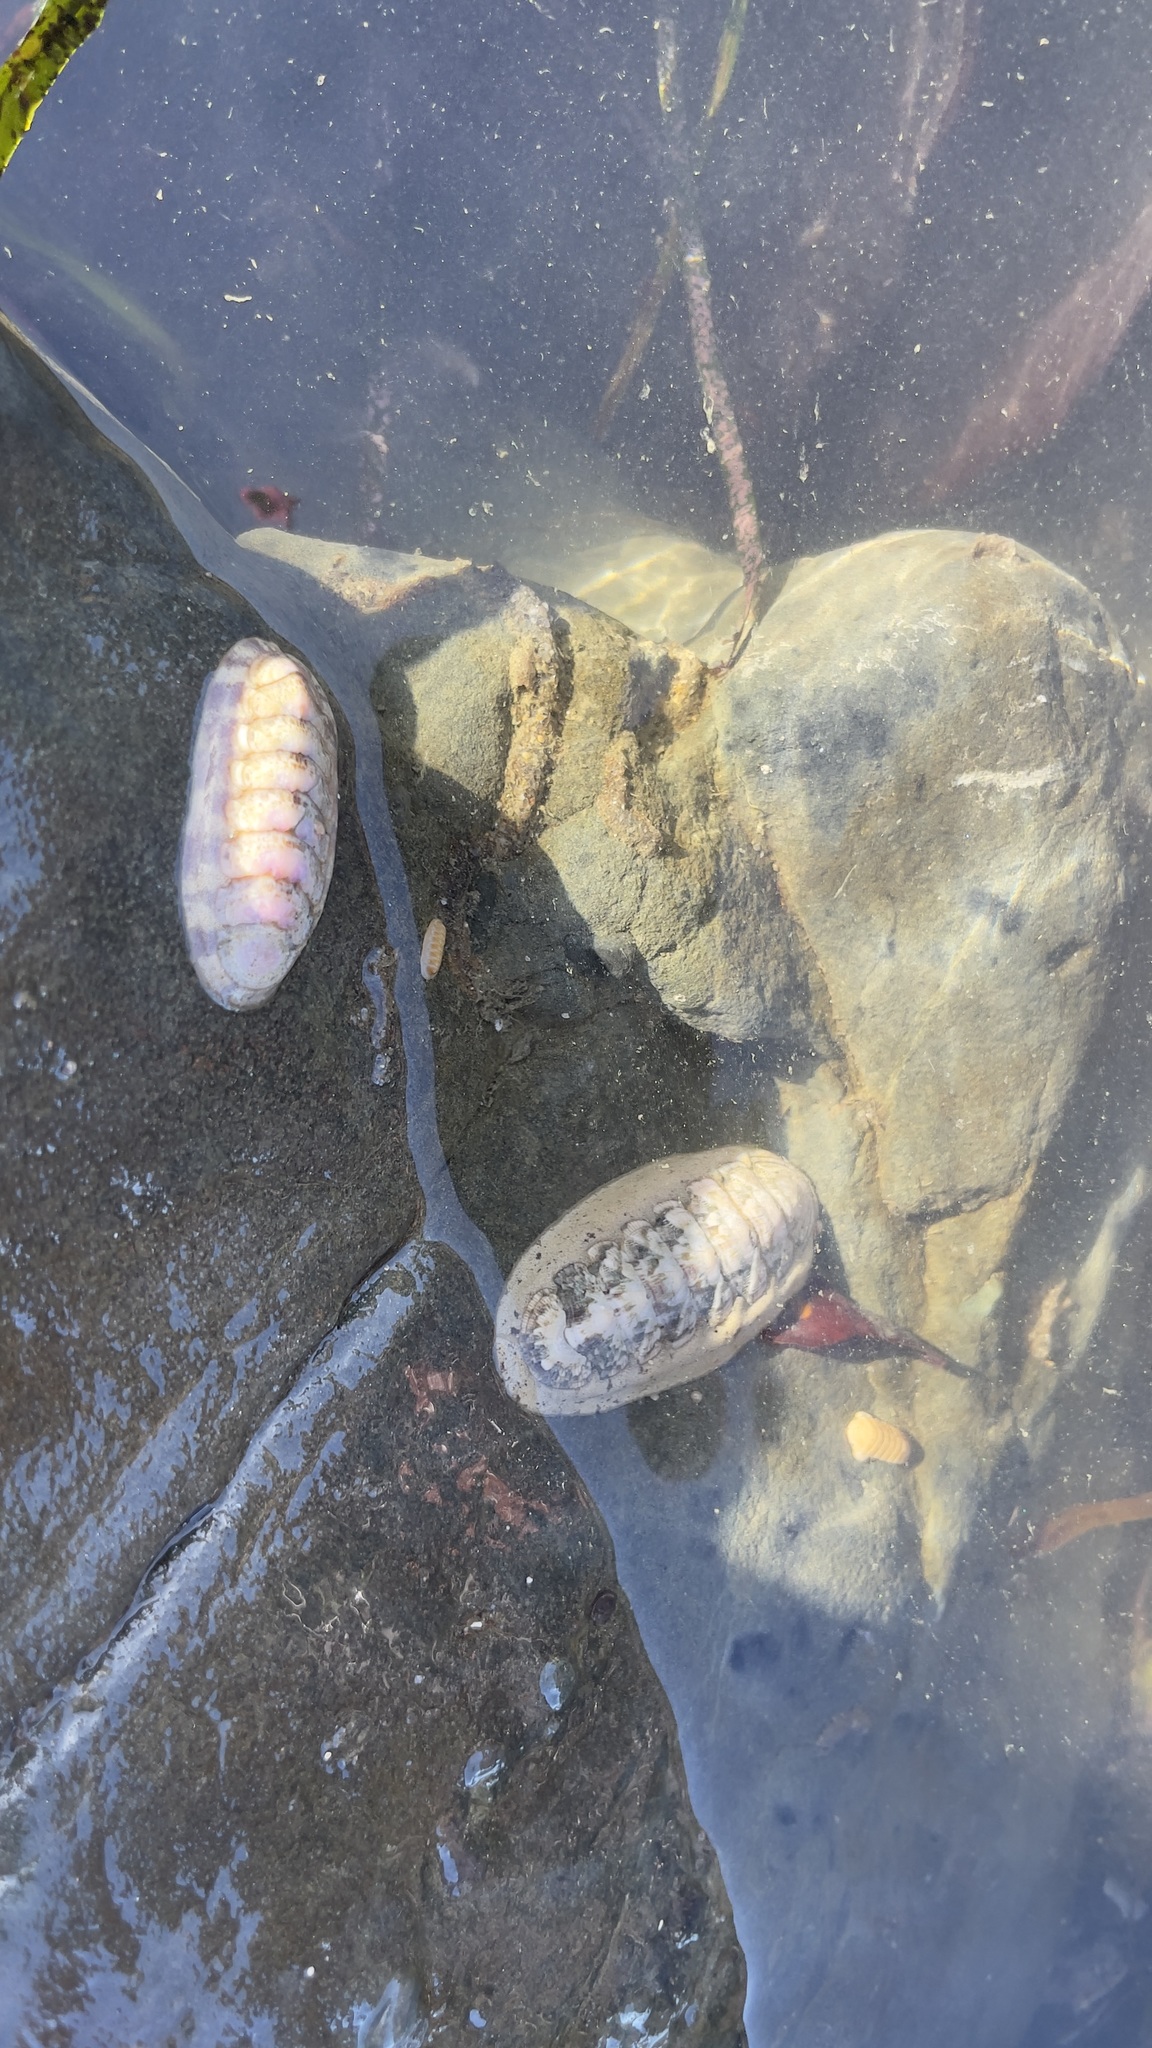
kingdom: Animalia
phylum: Mollusca
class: Polyplacophora
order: Chitonida
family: Ischnochitonidae
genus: Stenoplax
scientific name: Stenoplax heathiana
